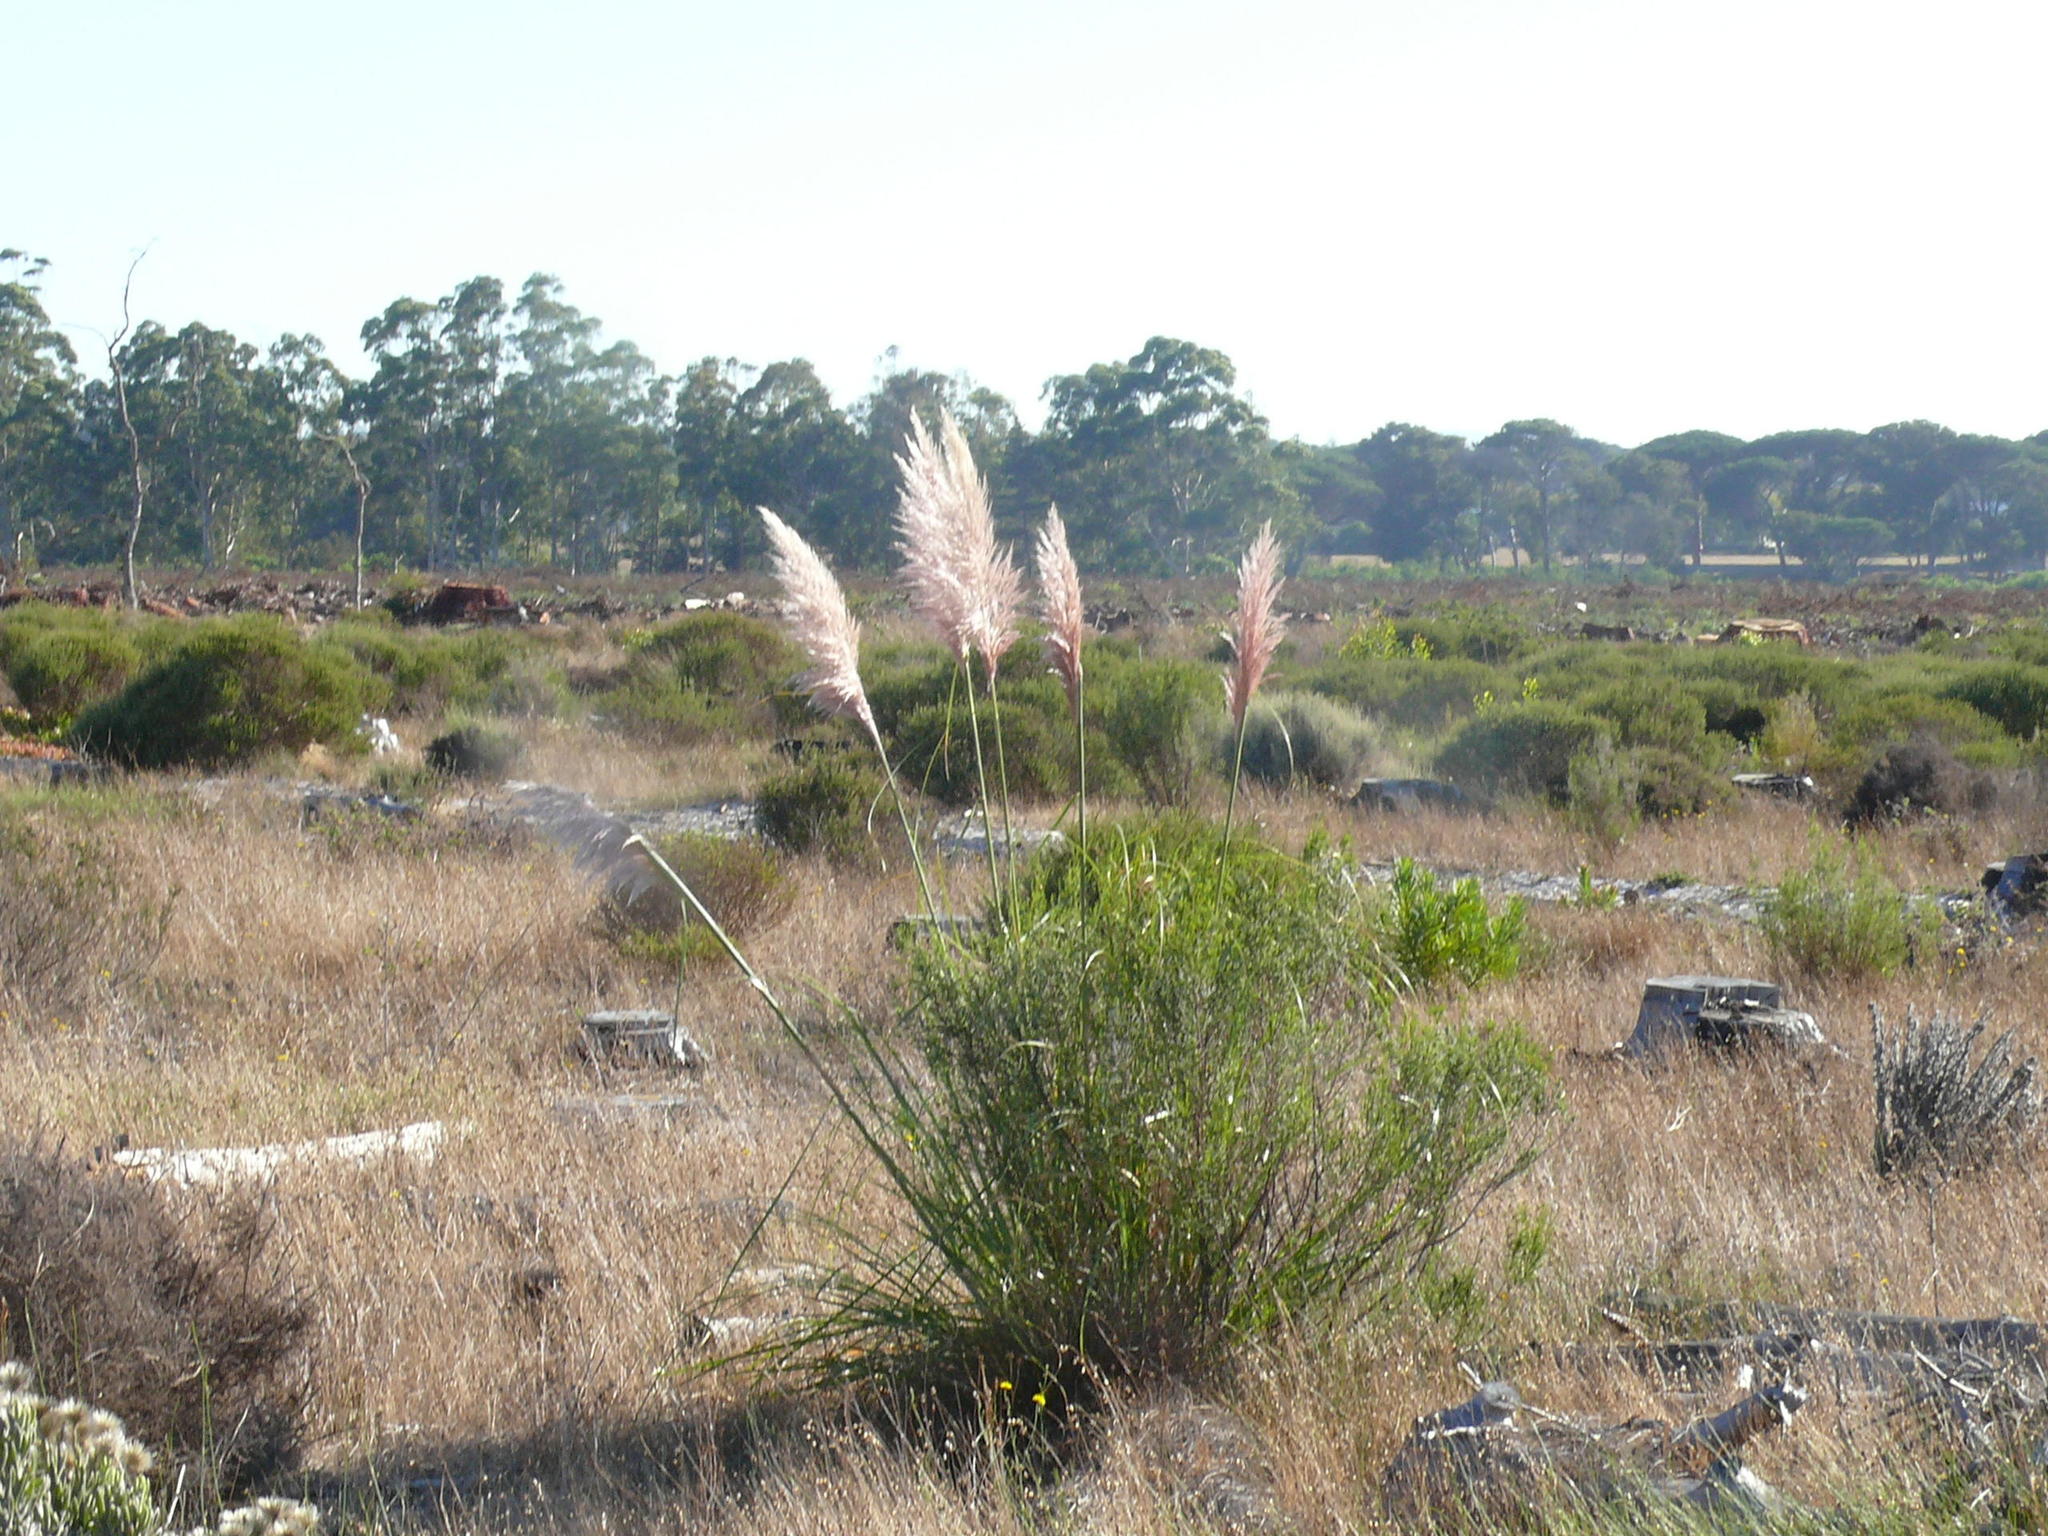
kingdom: Plantae
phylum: Tracheophyta
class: Liliopsida
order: Poales
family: Poaceae
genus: Cortaderia
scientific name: Cortaderia selloana
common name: Uruguayan pampas grass
